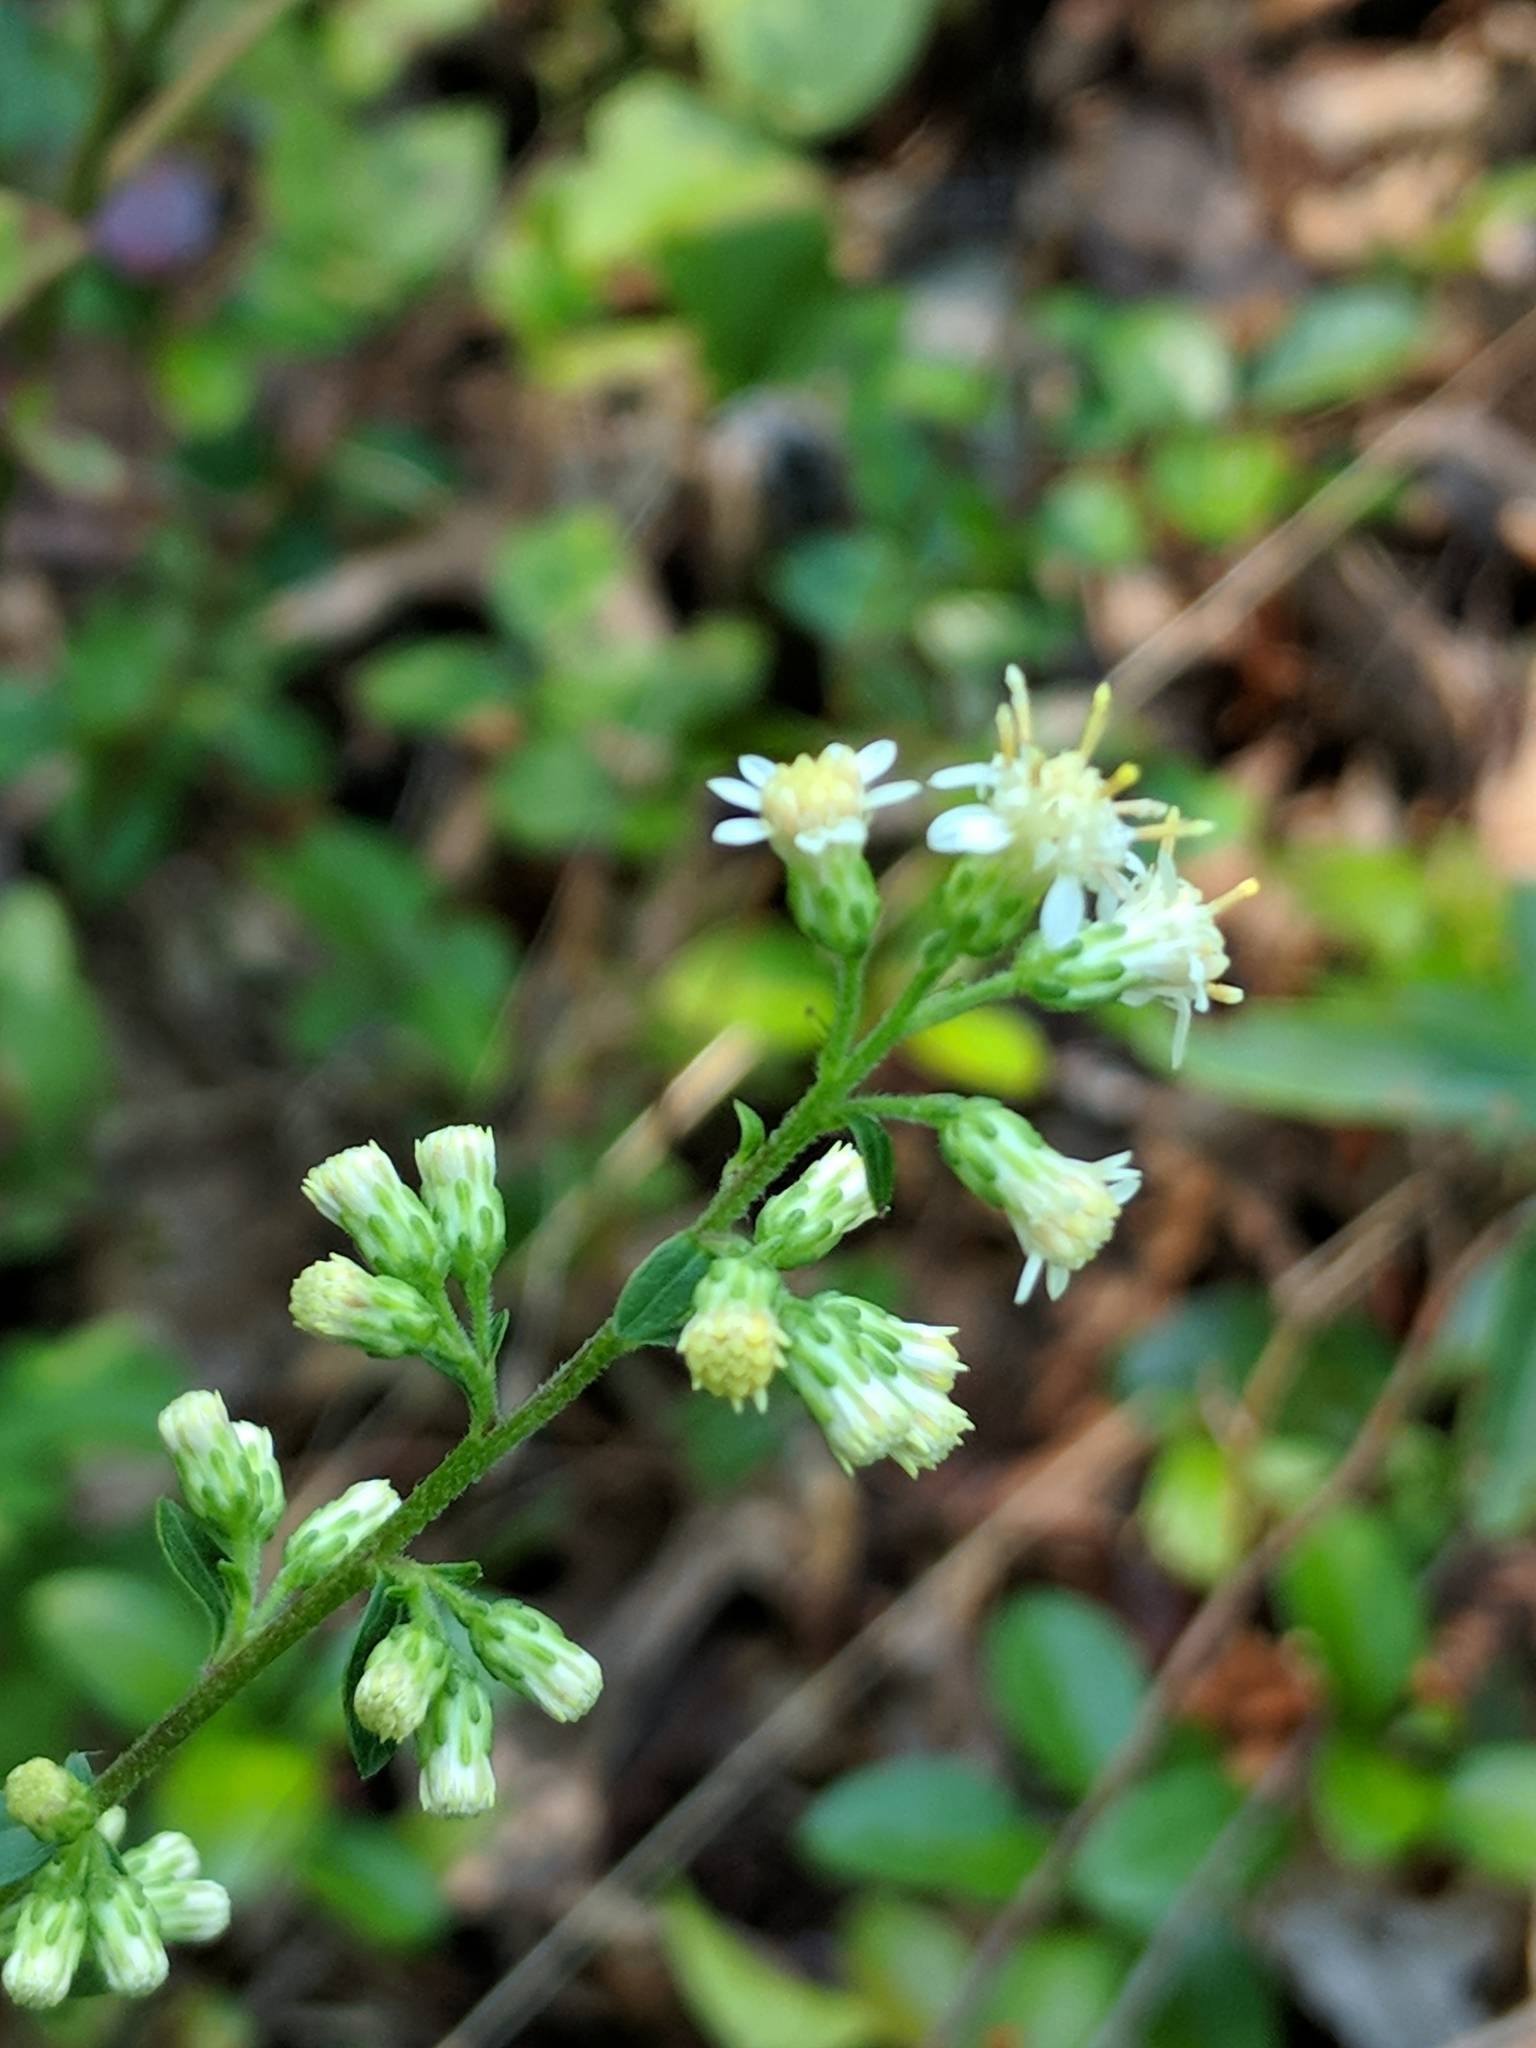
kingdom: Plantae
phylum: Tracheophyta
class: Magnoliopsida
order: Asterales
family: Asteraceae
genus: Solidago
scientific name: Solidago bicolor
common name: Silverrod
